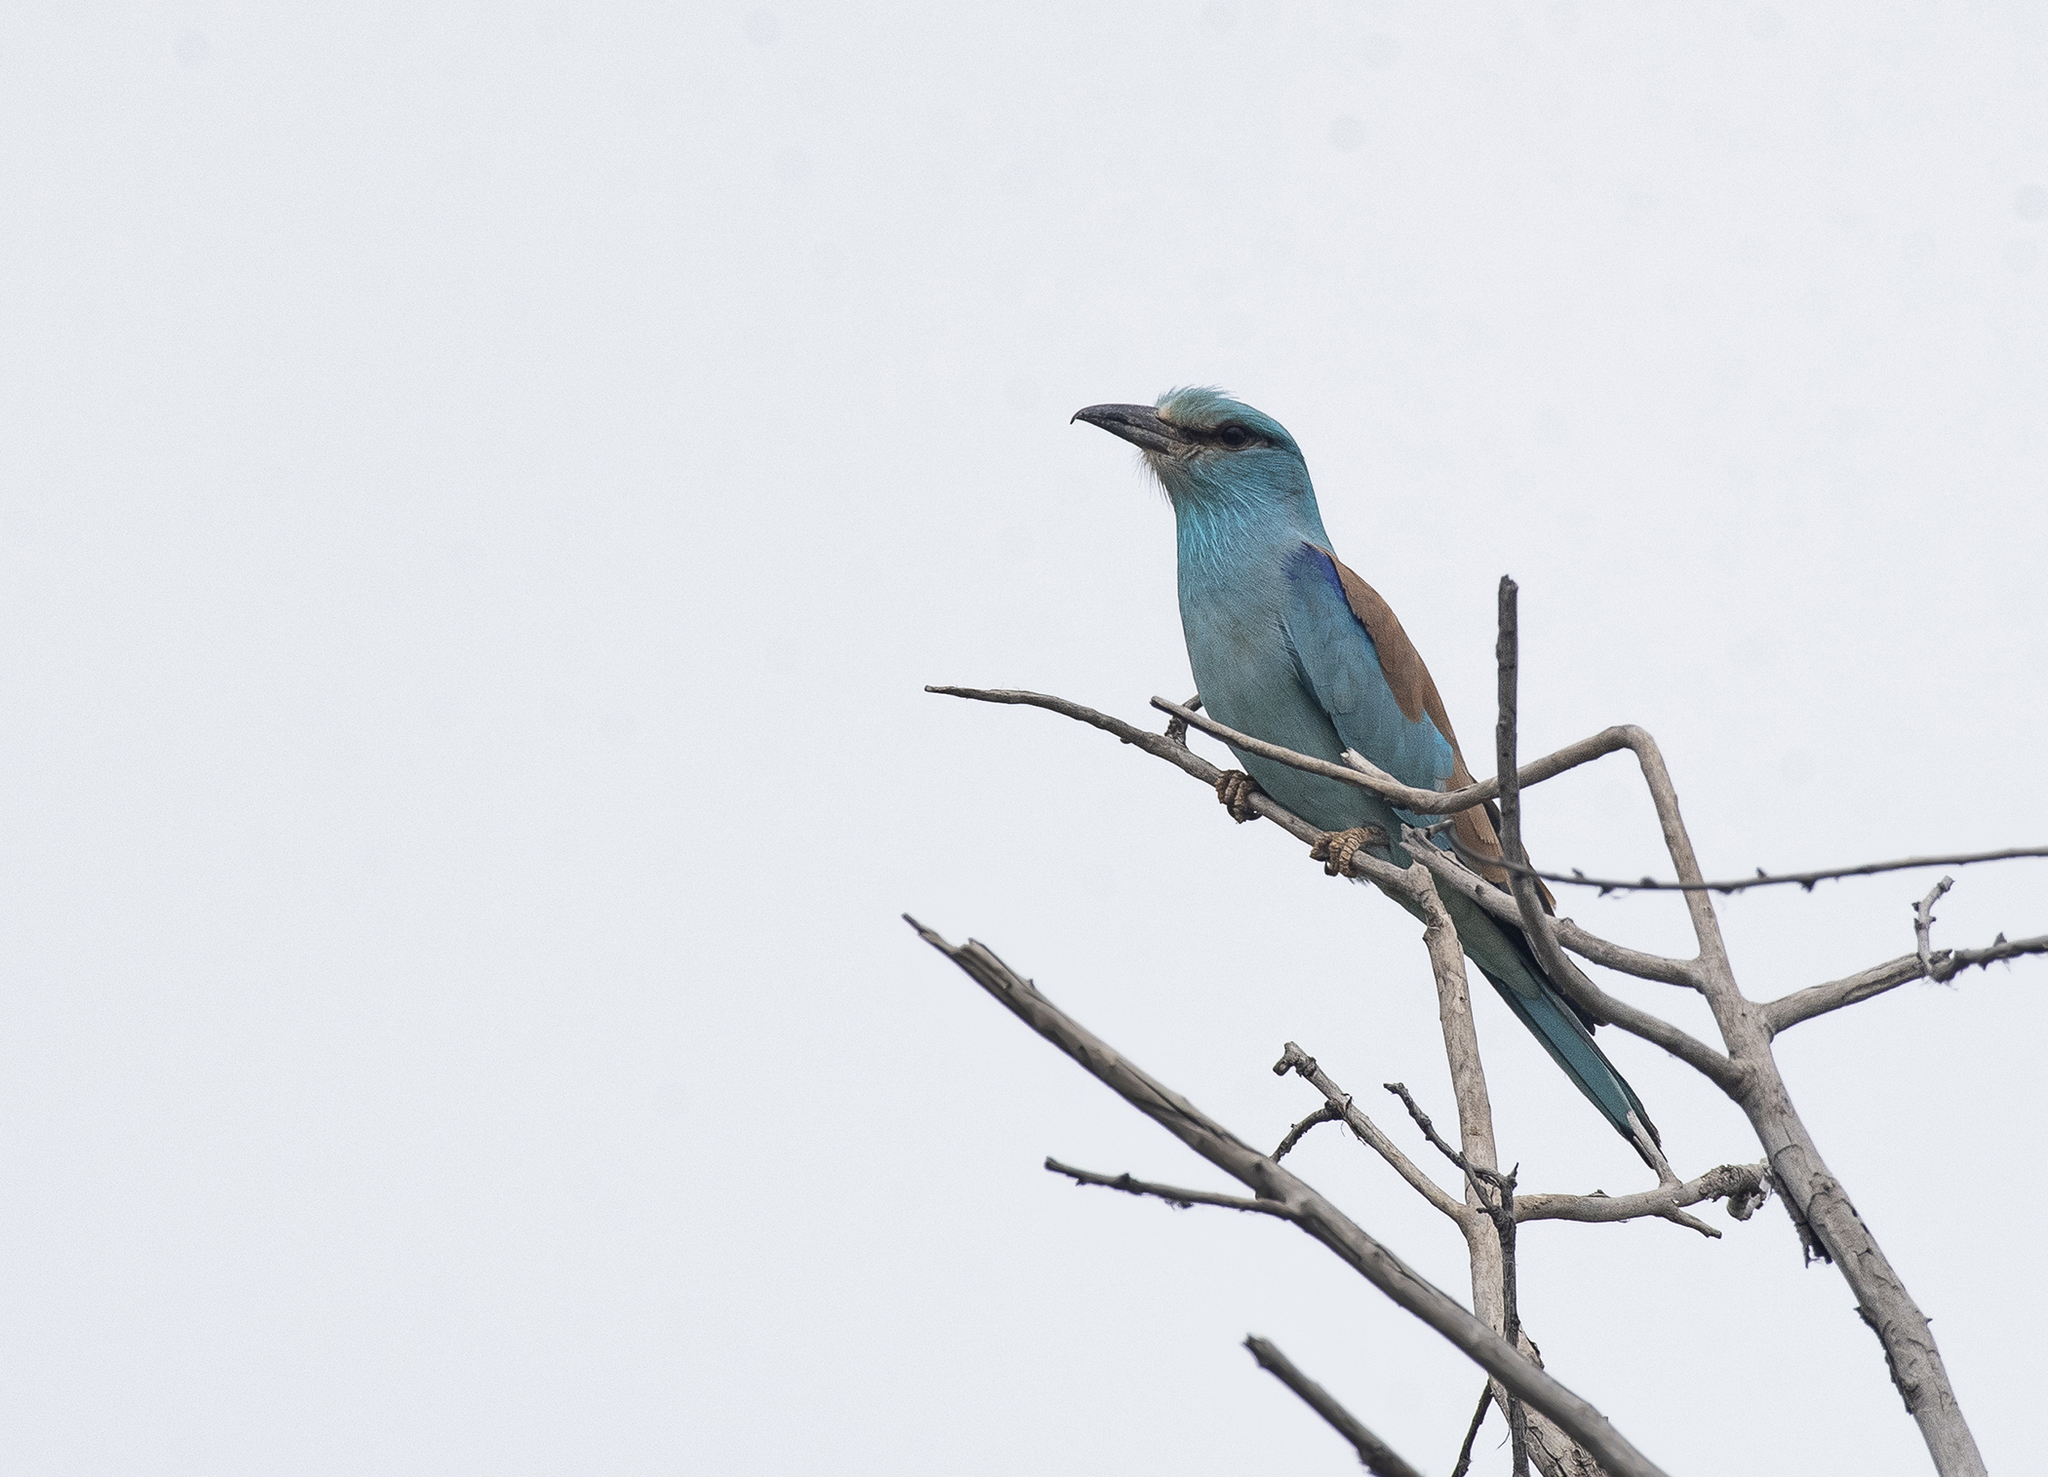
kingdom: Animalia
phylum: Chordata
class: Aves
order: Coraciiformes
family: Coraciidae
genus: Coracias
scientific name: Coracias garrulus
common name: European roller
